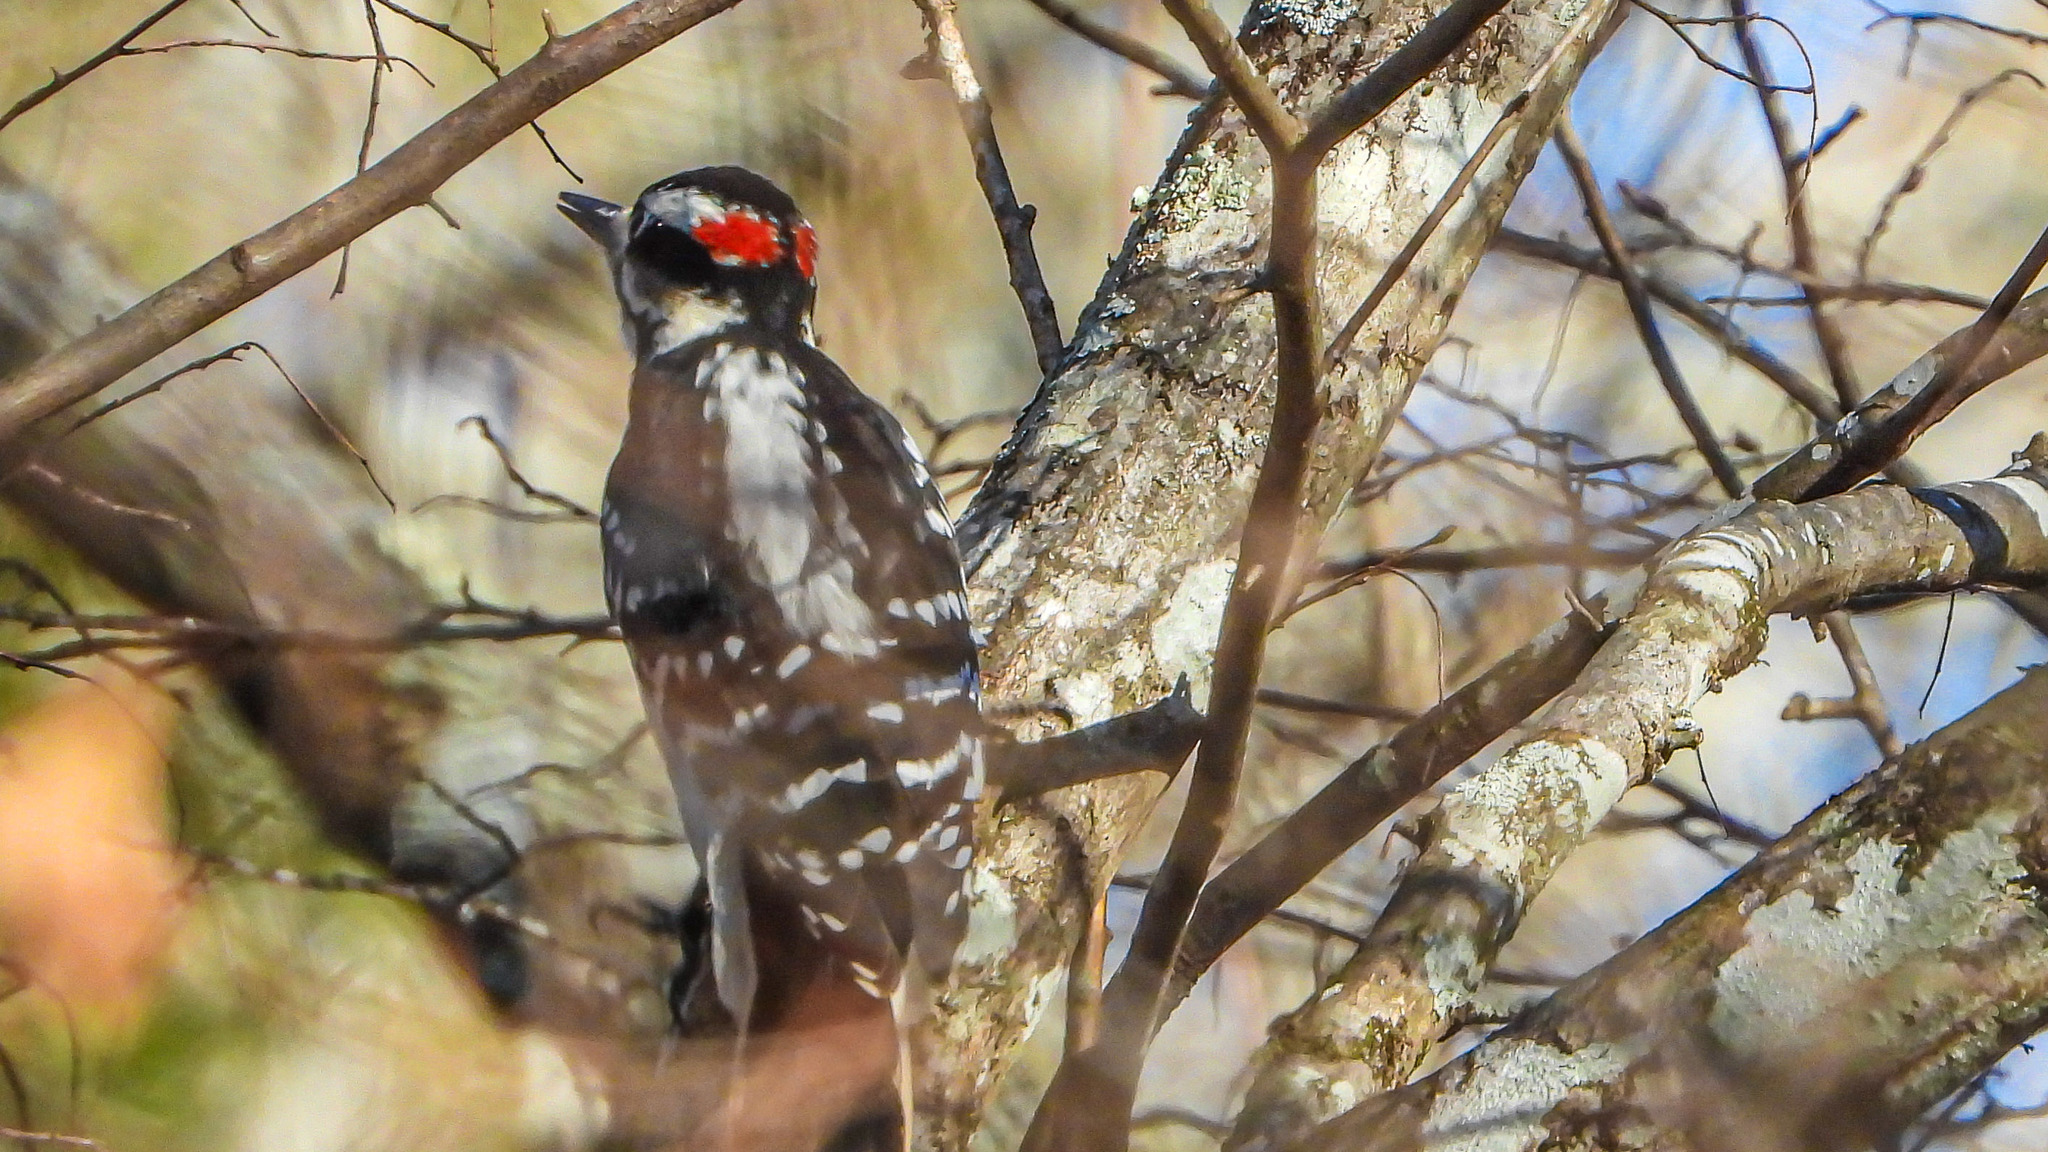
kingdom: Animalia
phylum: Chordata
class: Aves
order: Piciformes
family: Picidae
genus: Leuconotopicus
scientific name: Leuconotopicus villosus
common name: Hairy woodpecker
